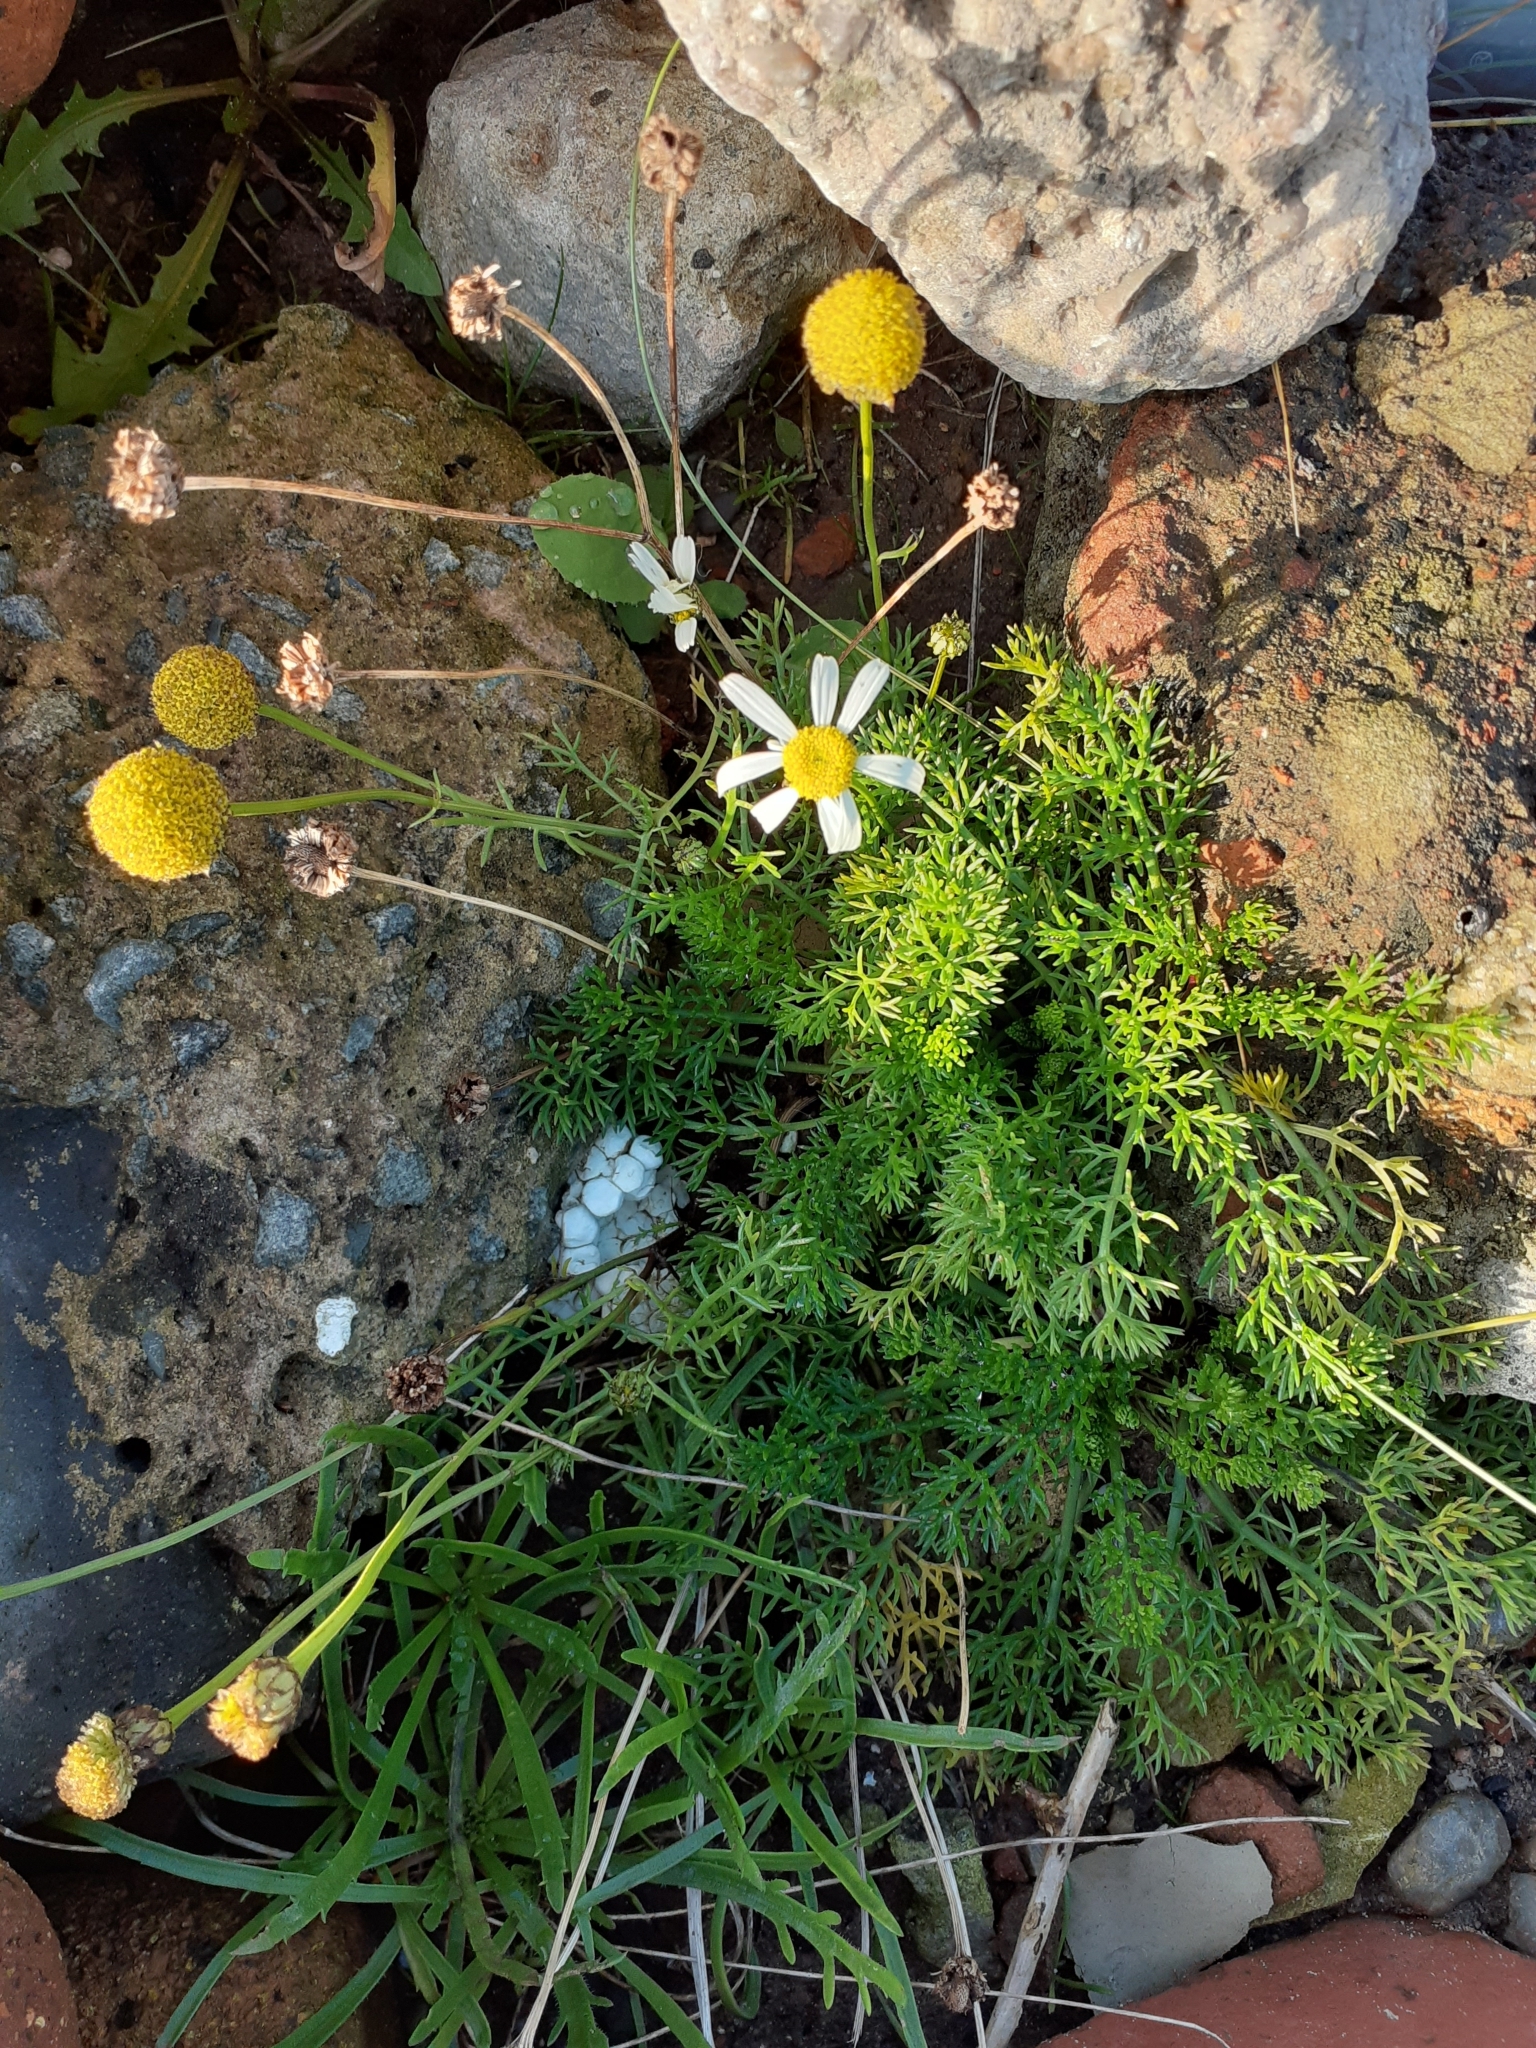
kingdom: Plantae
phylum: Tracheophyta
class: Magnoliopsida
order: Asterales
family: Asteraceae
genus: Tripleurospermum
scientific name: Tripleurospermum maritimum
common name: Sea mayweed
